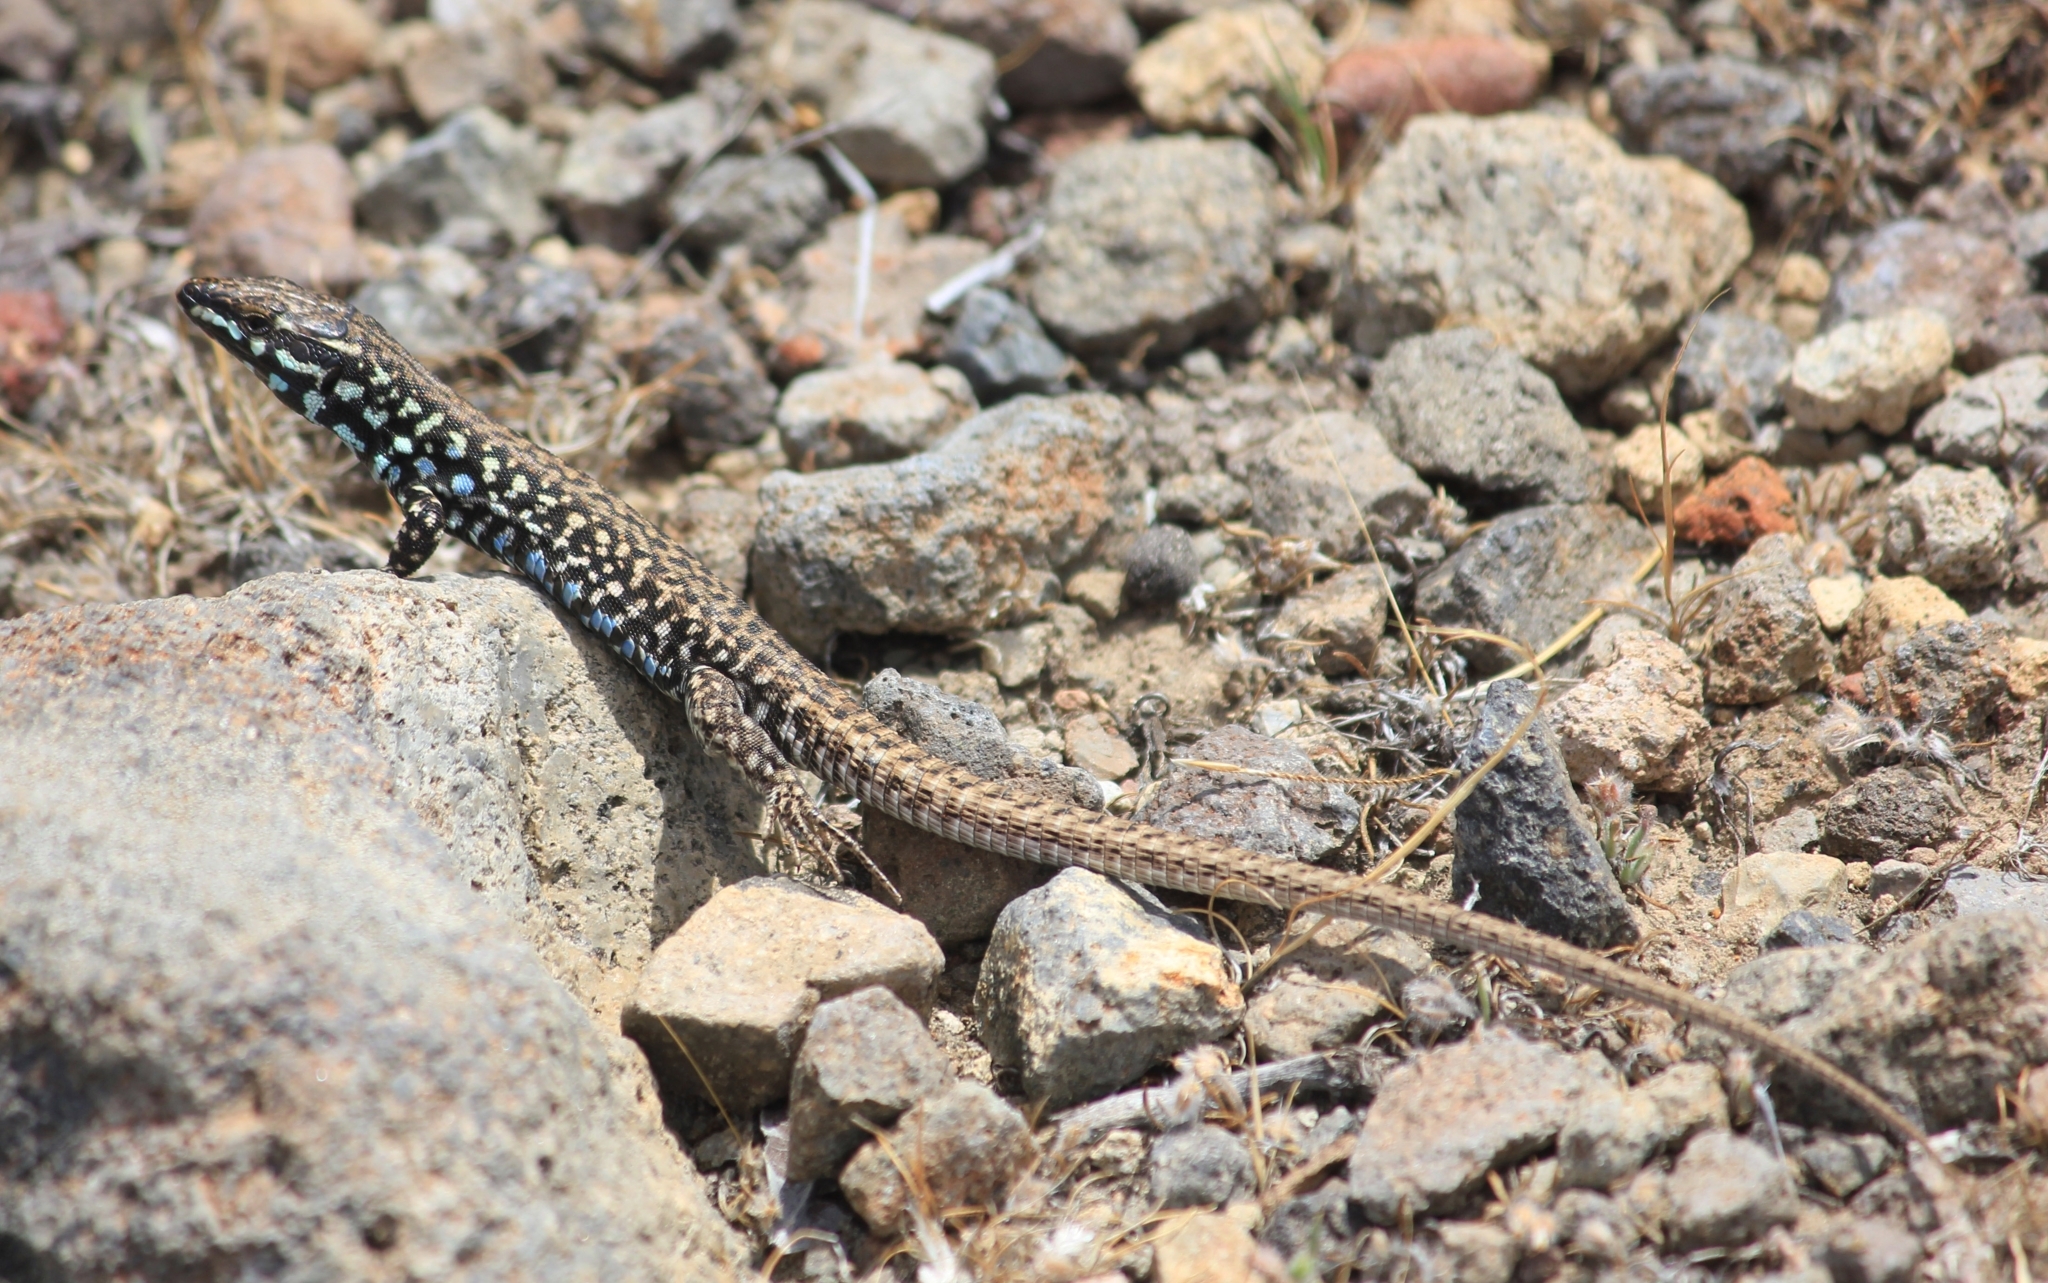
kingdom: Animalia
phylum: Chordata
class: Squamata
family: Lacertidae
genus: Podarcis
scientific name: Podarcis milensis
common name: Milos wall lizard
